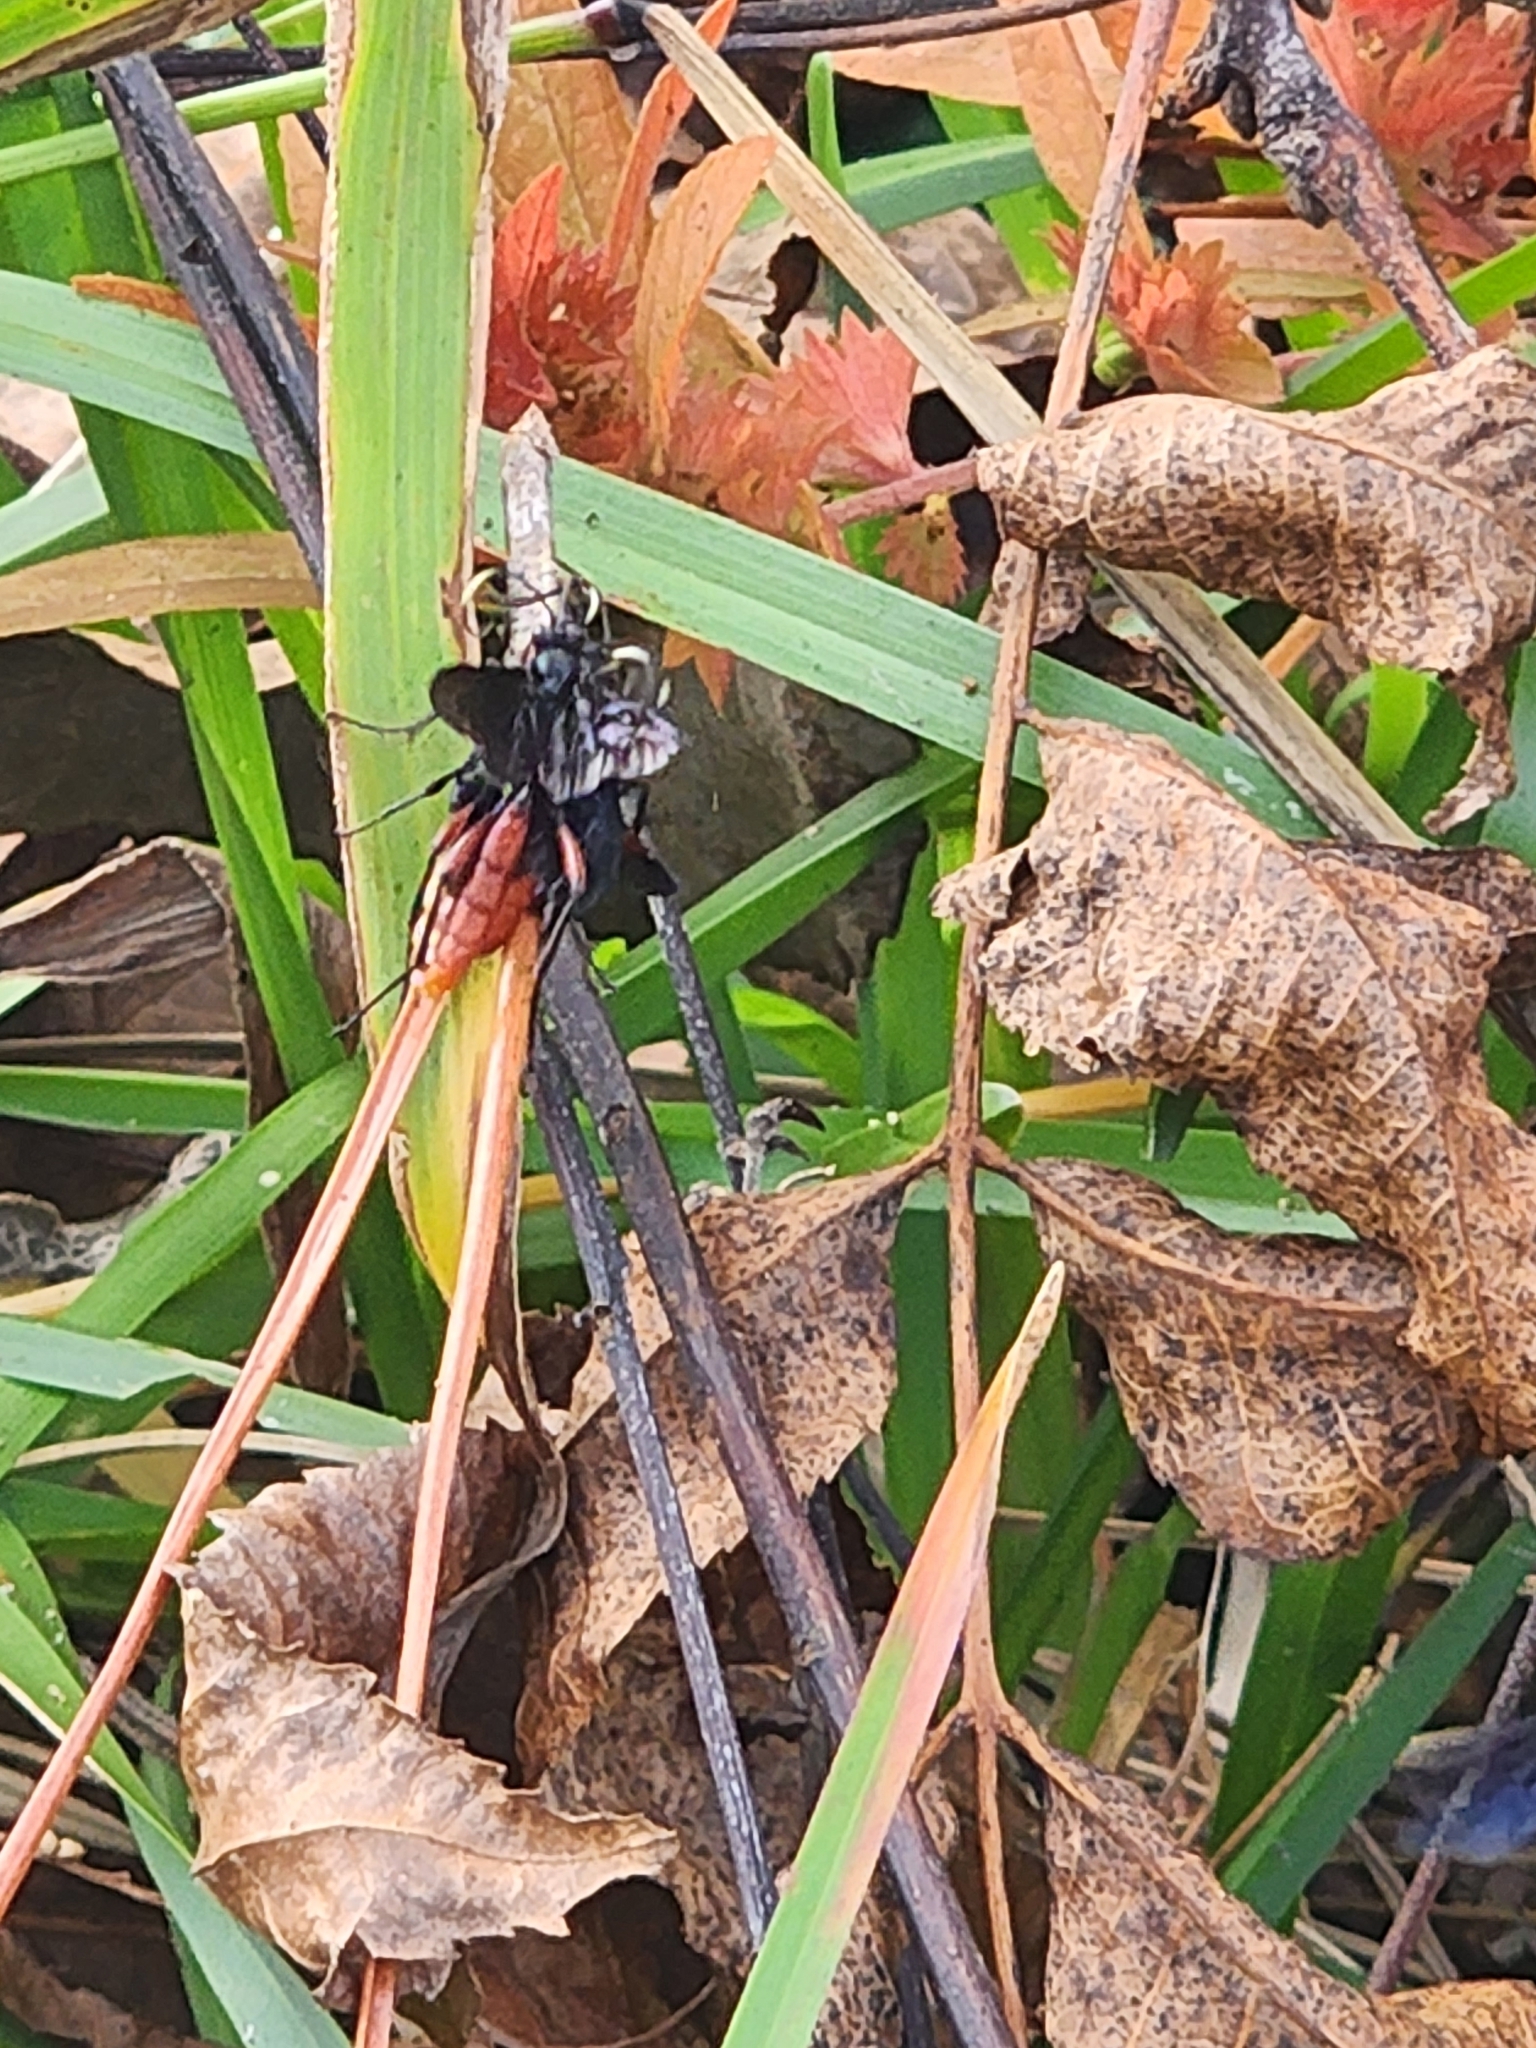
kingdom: Animalia
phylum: Arthropoda
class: Insecta
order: Hymenoptera
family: Ichneumonidae
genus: Limonethe
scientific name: Limonethe maurator
